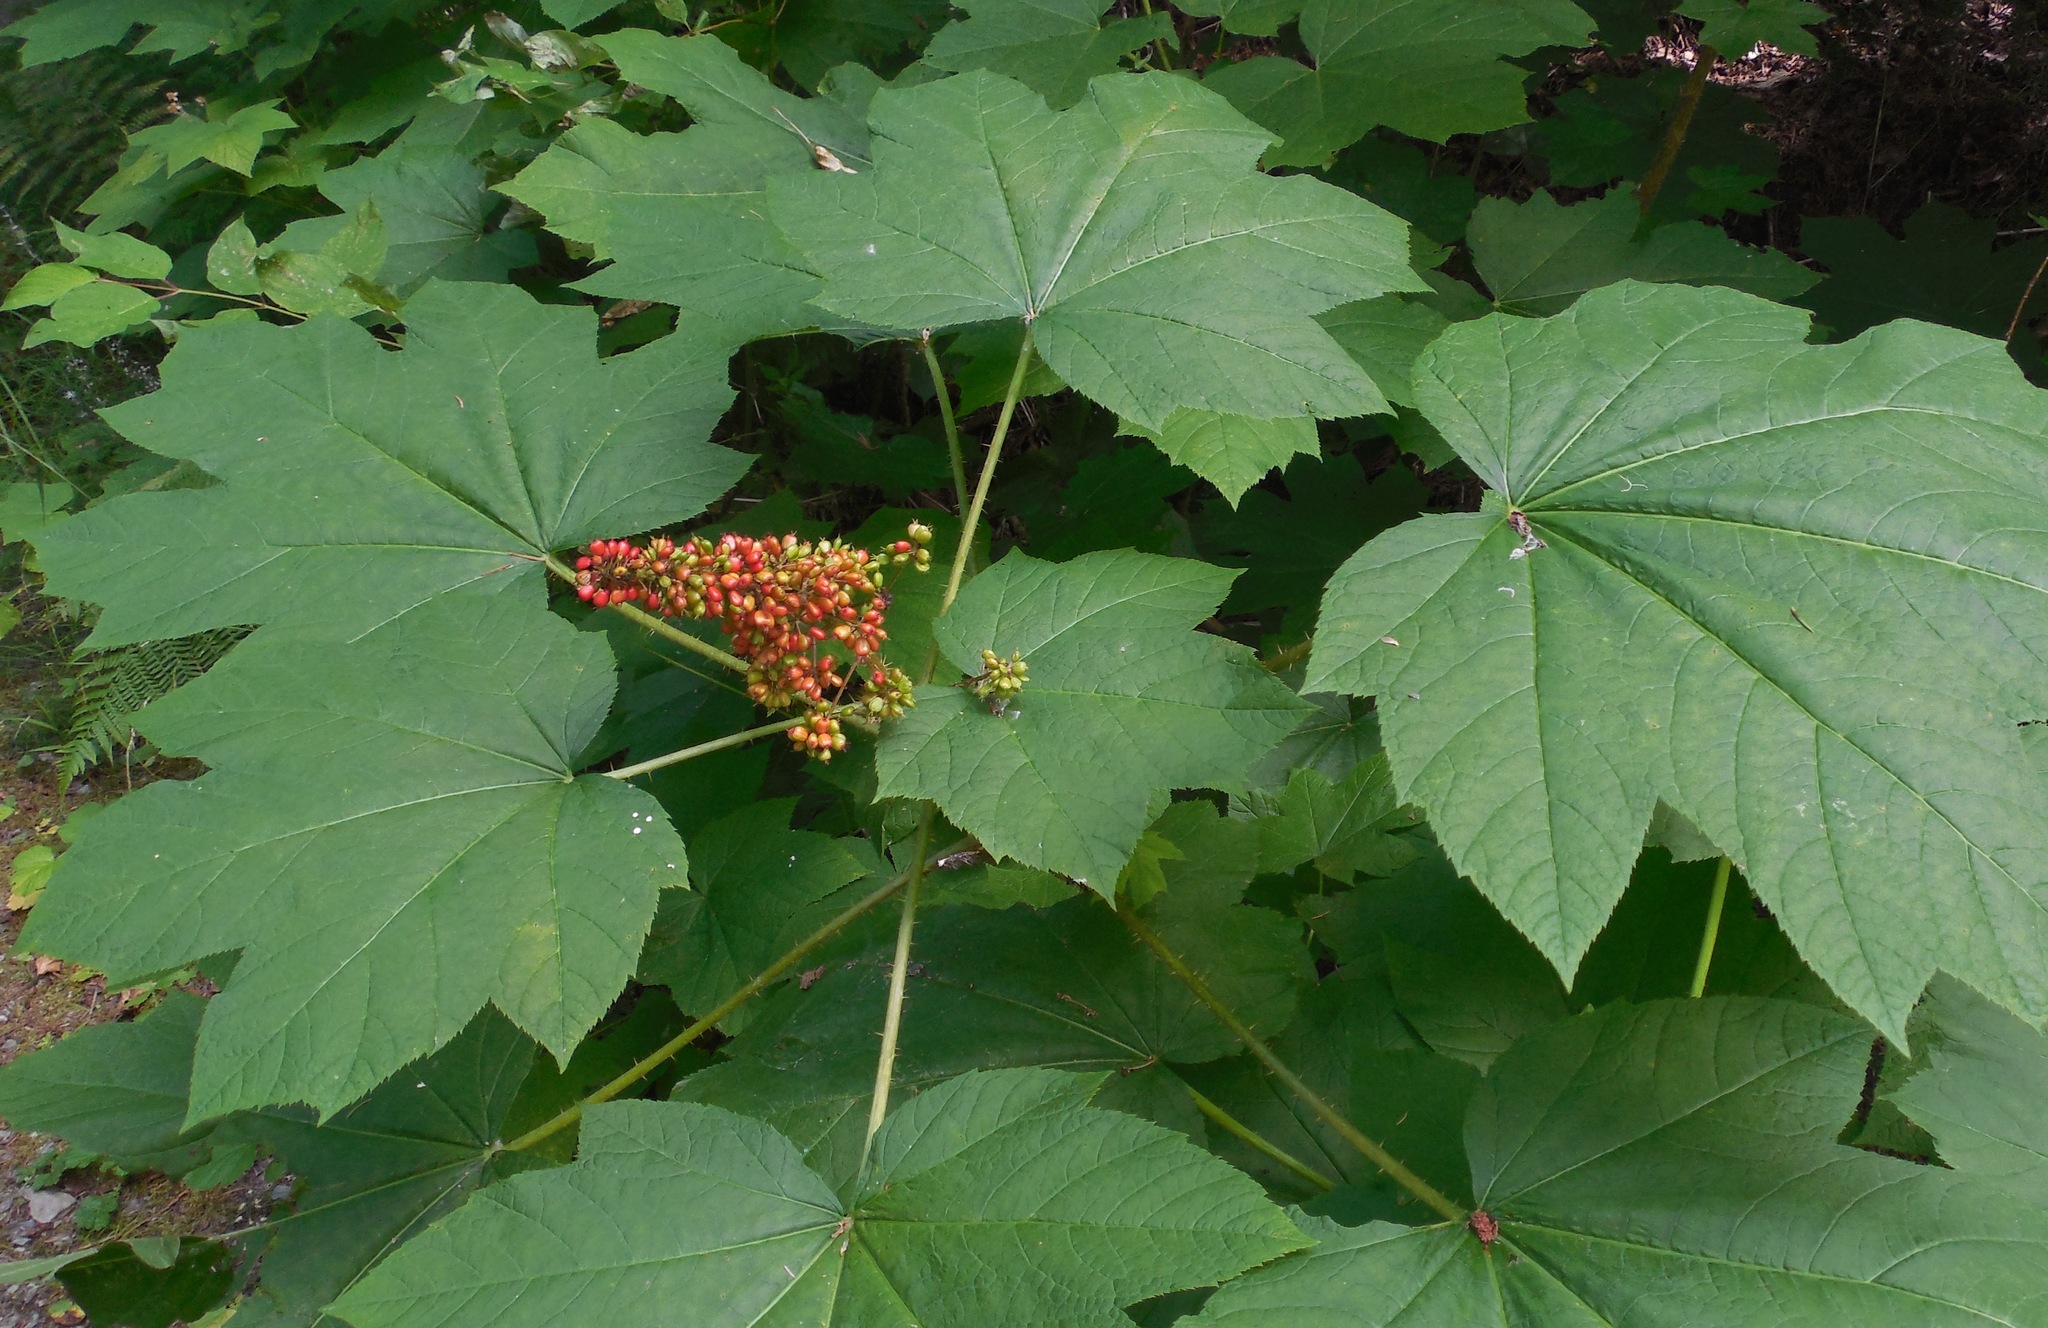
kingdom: Plantae
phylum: Tracheophyta
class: Magnoliopsida
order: Apiales
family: Araliaceae
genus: Oplopanax
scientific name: Oplopanax horridus
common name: Devil's walking-stick
